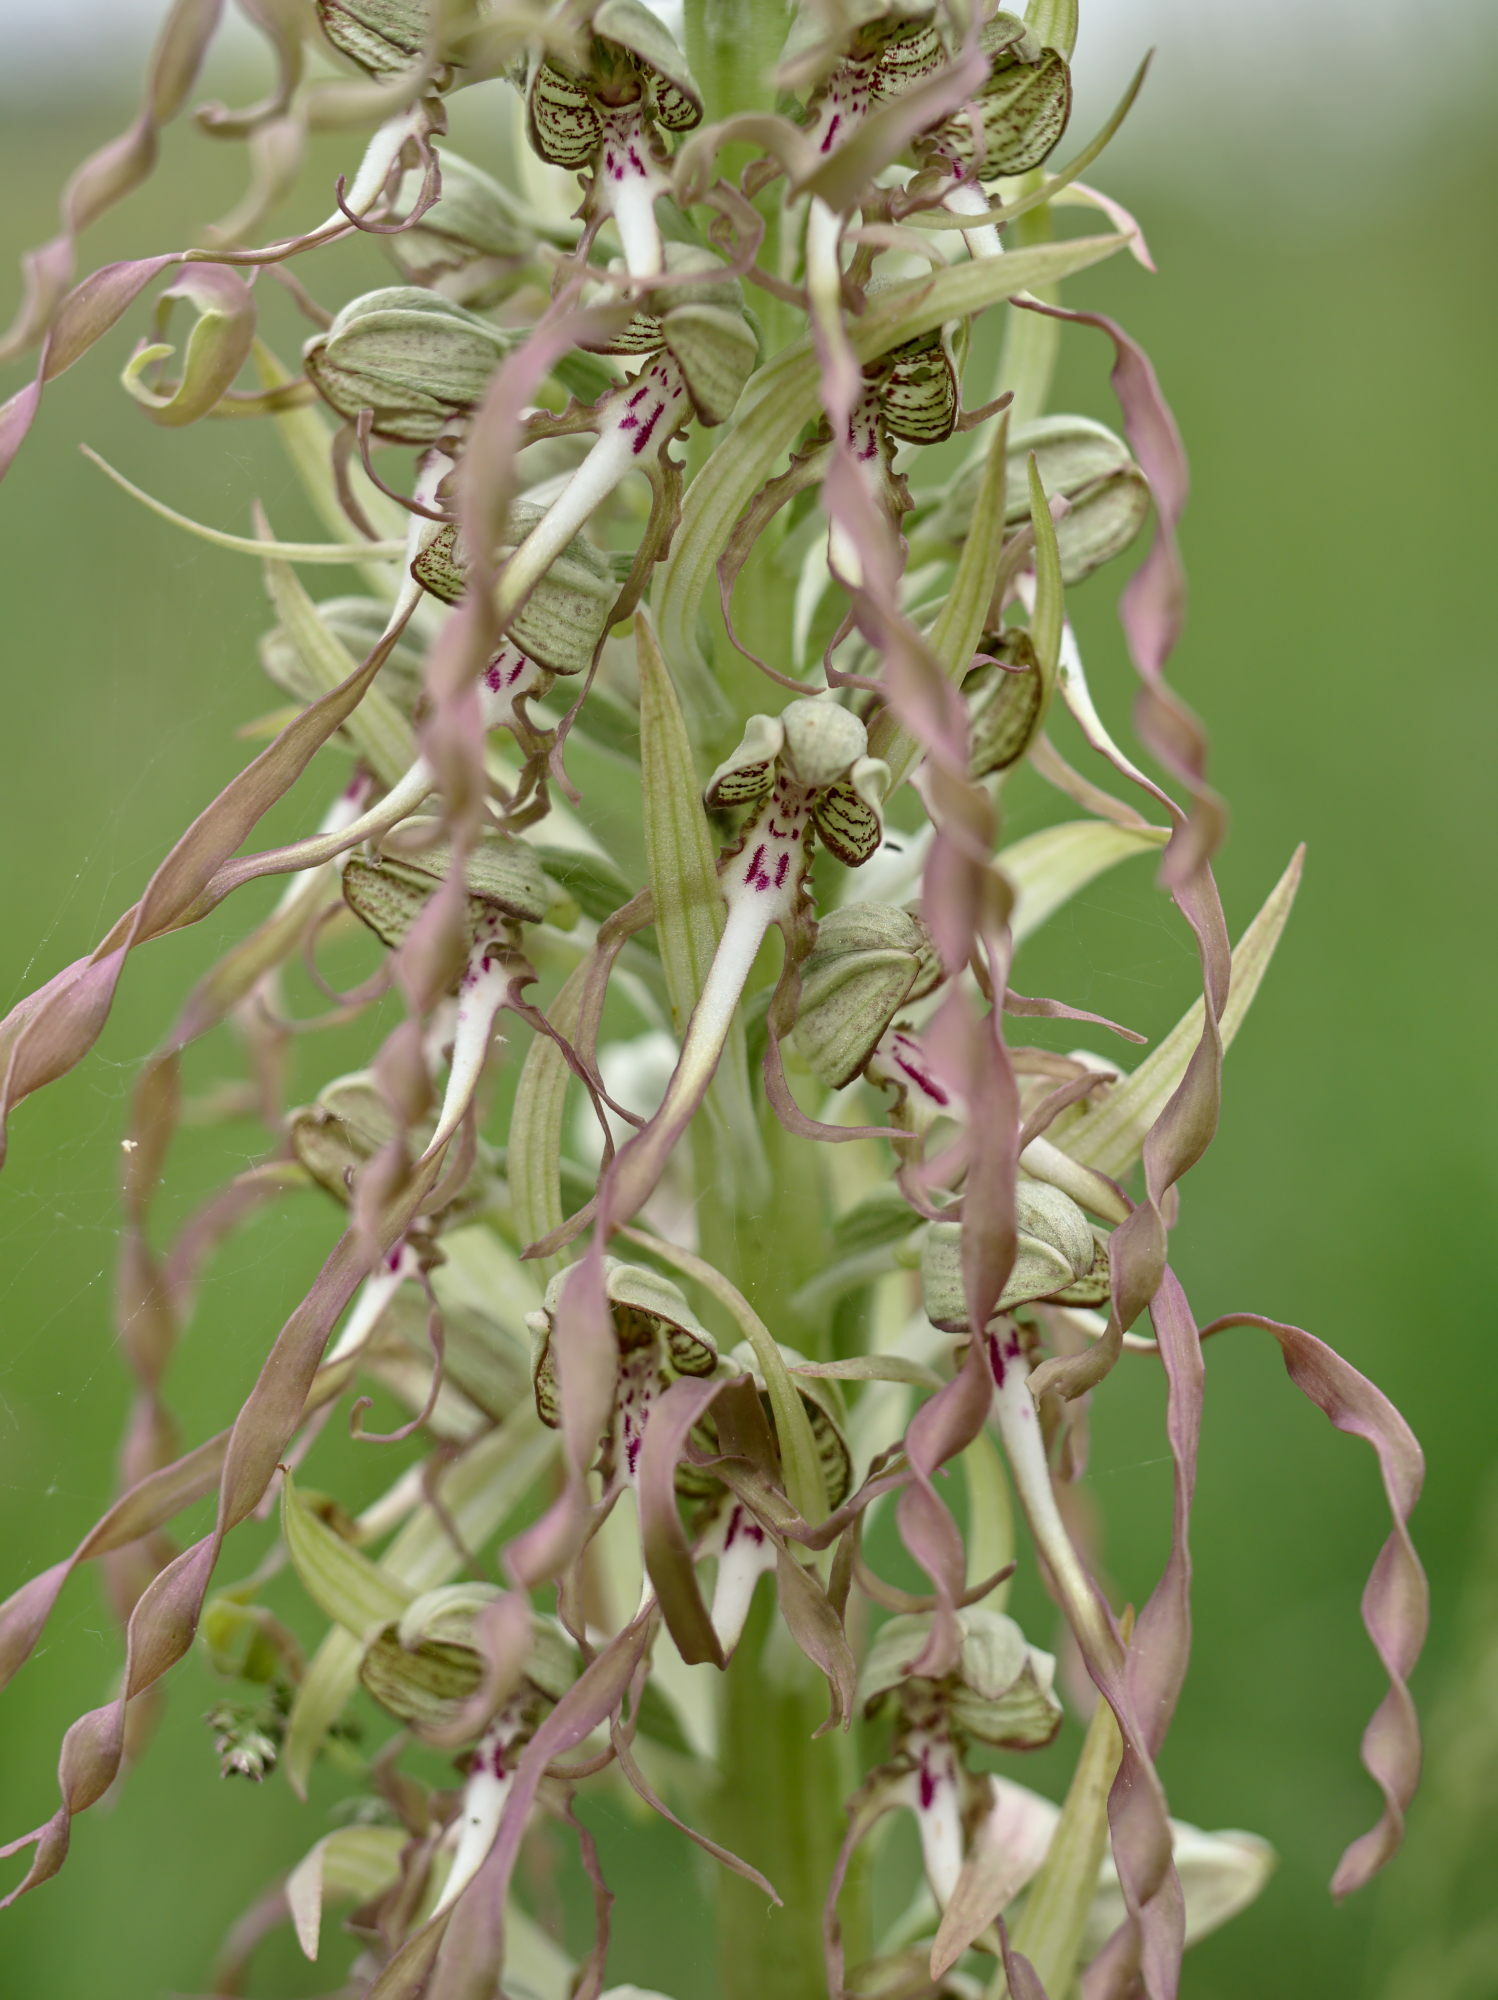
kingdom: Plantae
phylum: Tracheophyta
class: Liliopsida
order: Asparagales
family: Orchidaceae
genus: Himantoglossum
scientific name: Himantoglossum hircinum
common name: Lizard orchid
